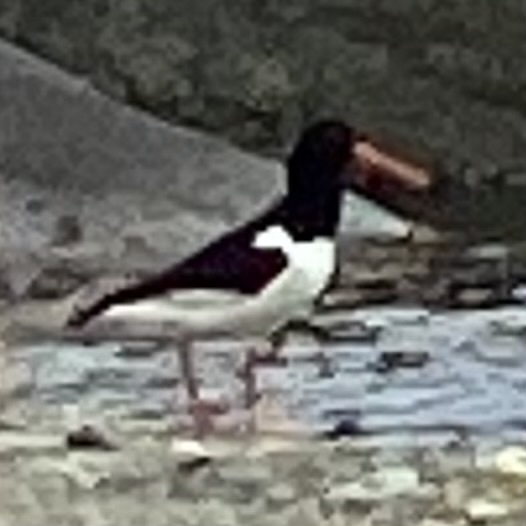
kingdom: Animalia
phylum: Chordata
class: Aves
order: Charadriiformes
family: Haematopodidae
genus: Haematopus
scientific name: Haematopus ostralegus
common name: Eurasian oystercatcher
